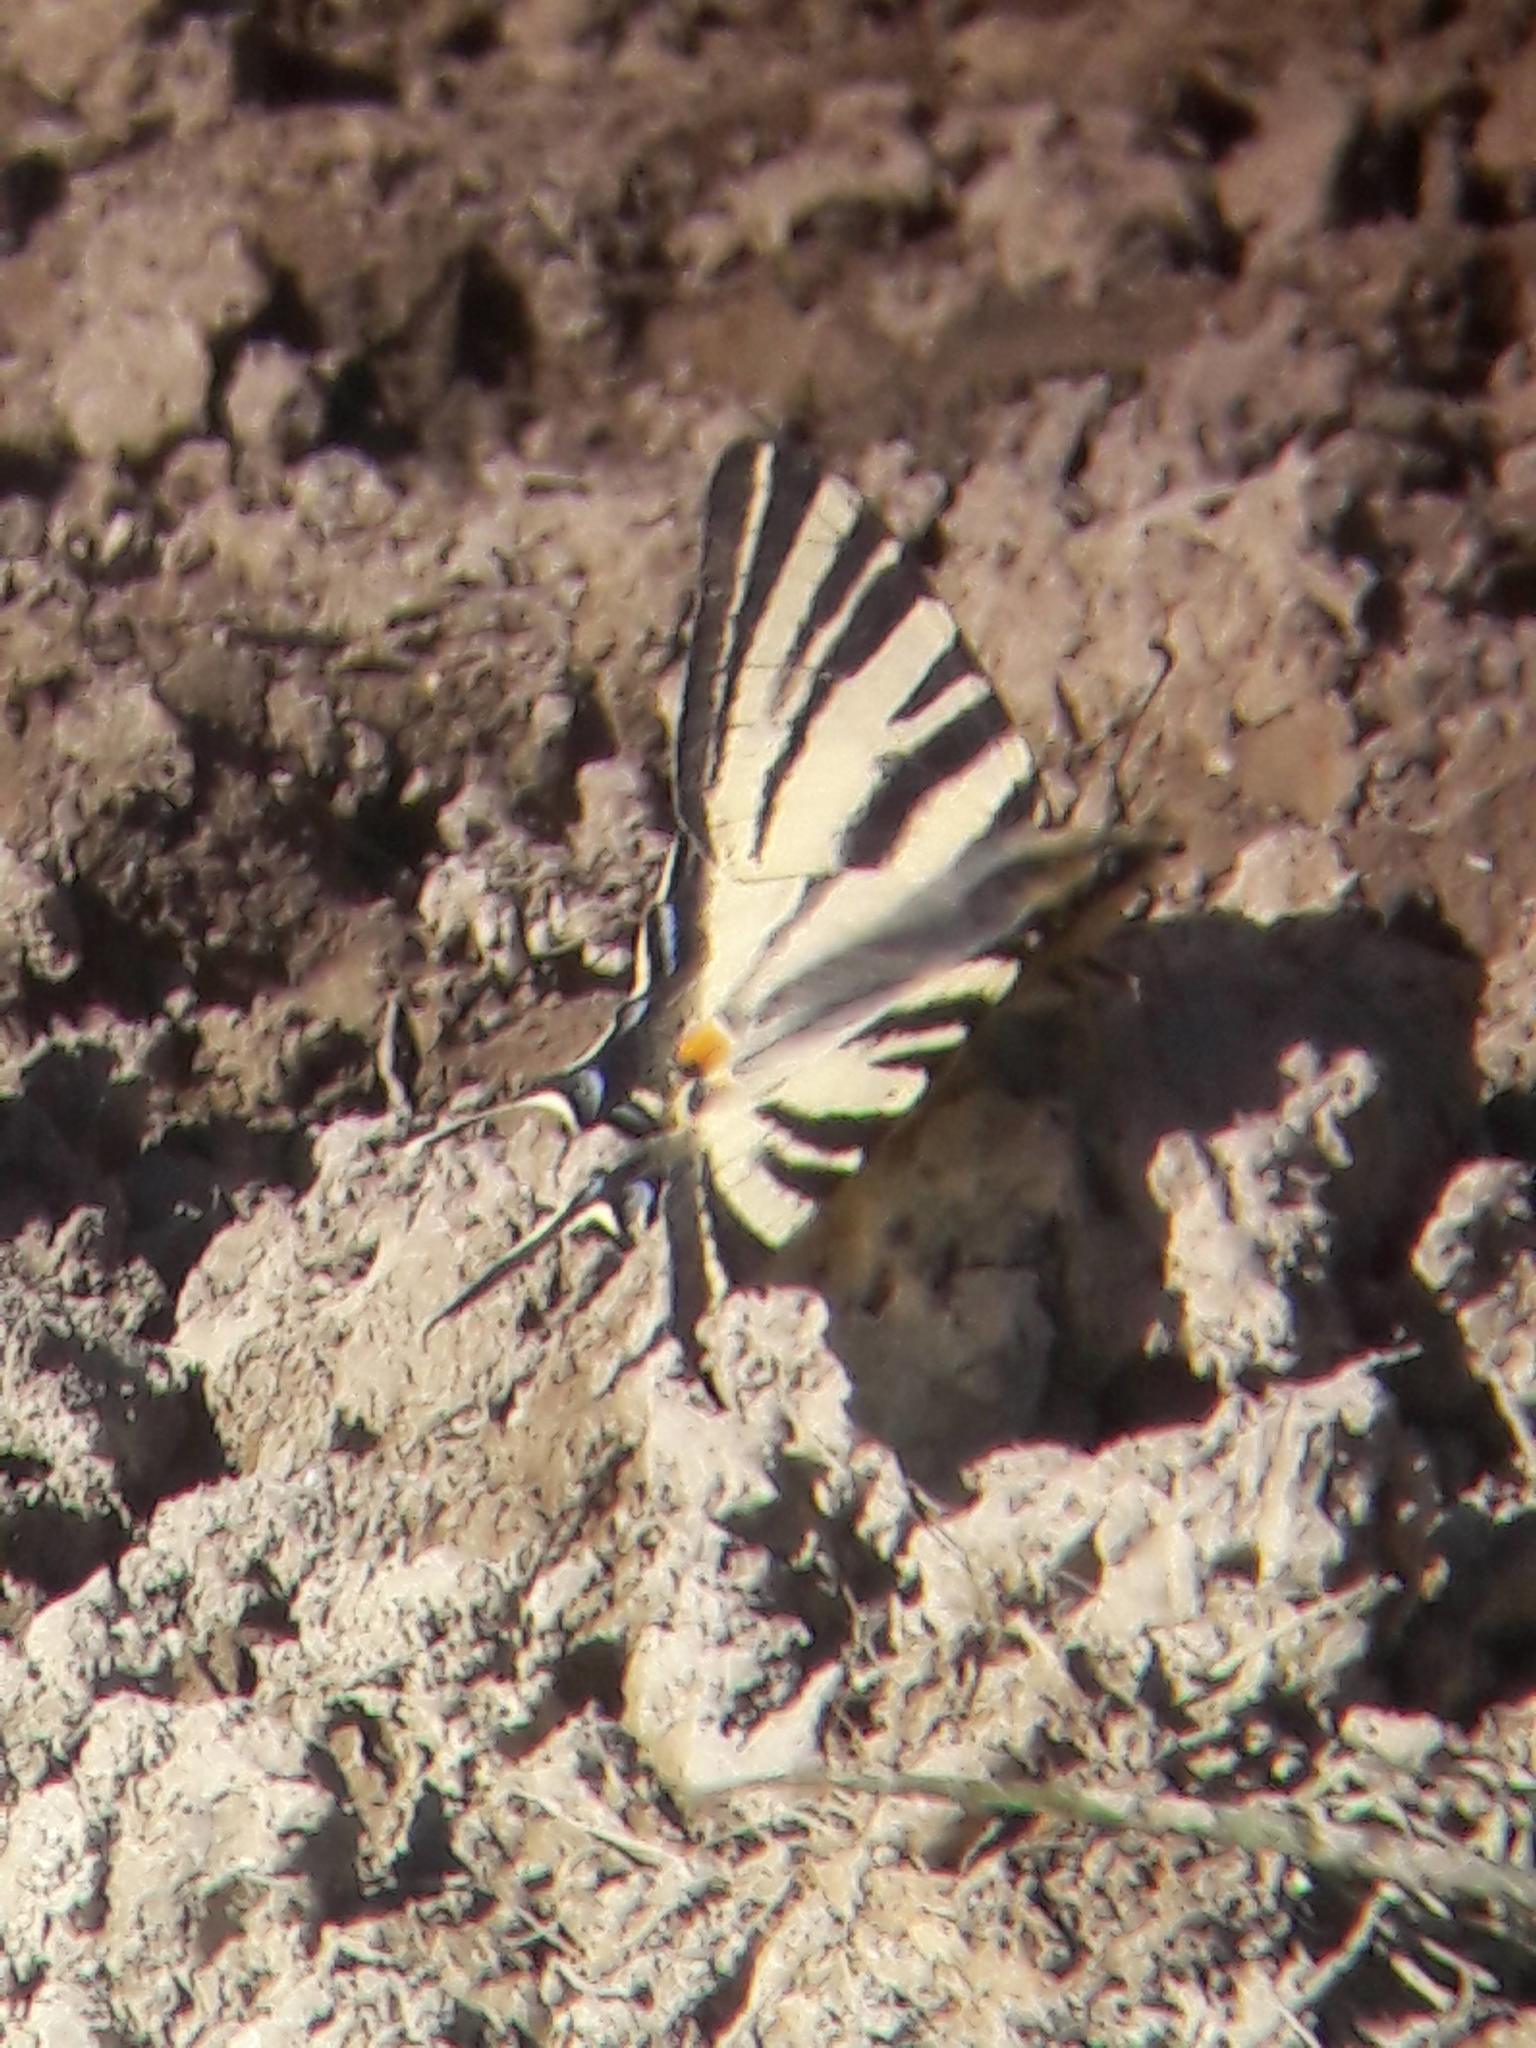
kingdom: Animalia
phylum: Arthropoda
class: Insecta
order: Lepidoptera
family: Papilionidae
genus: Iphiclides
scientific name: Iphiclides podalirius
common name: Scarce swallowtail
